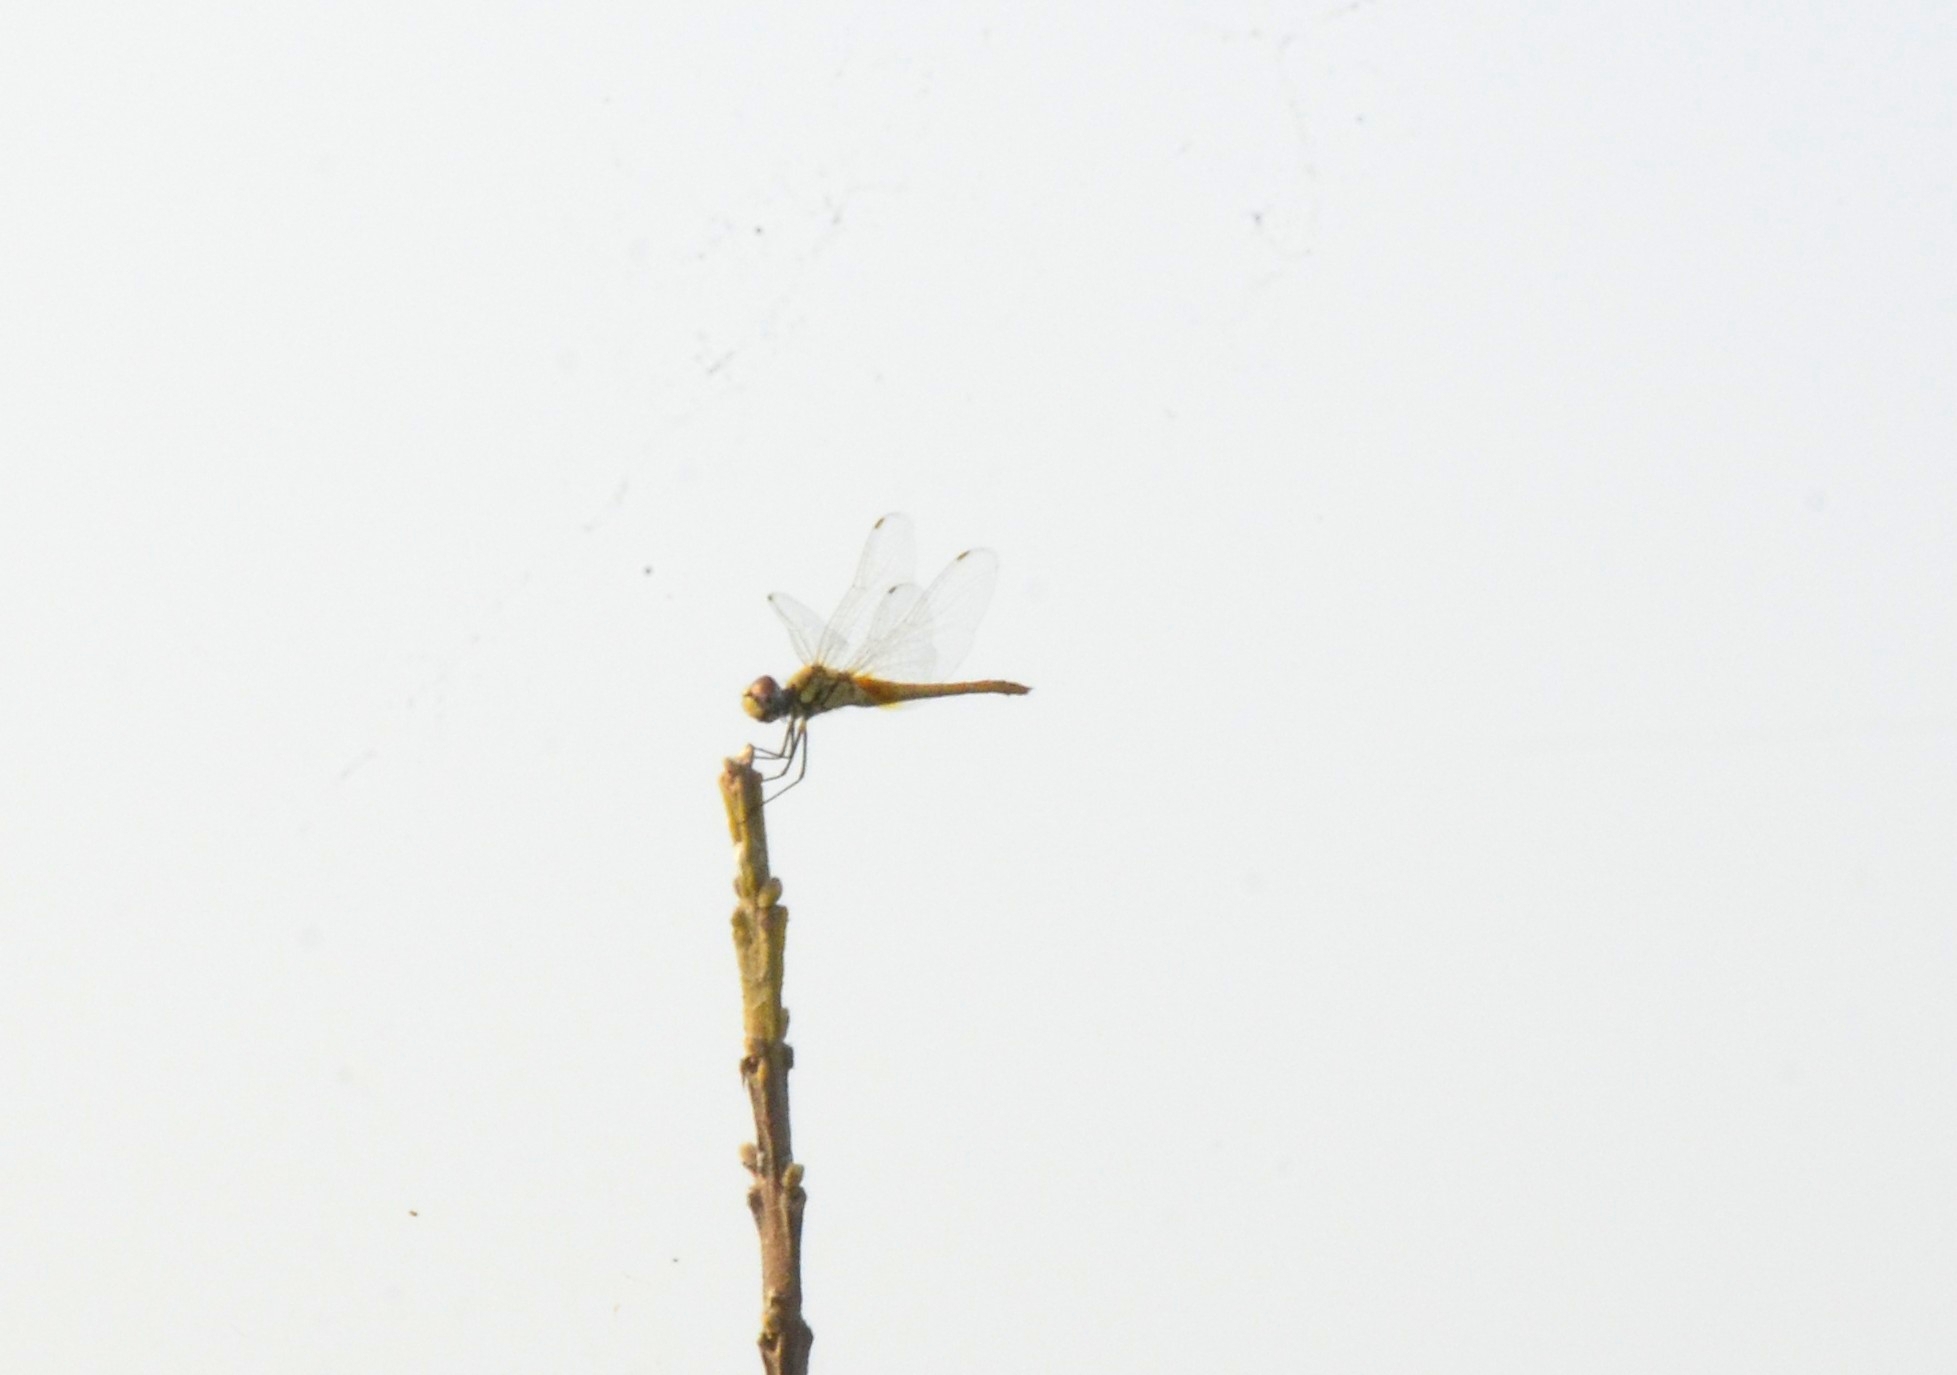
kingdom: Animalia
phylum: Arthropoda
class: Insecta
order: Odonata
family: Libellulidae
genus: Macrodiplax
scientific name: Macrodiplax cora
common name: Coastal glider
